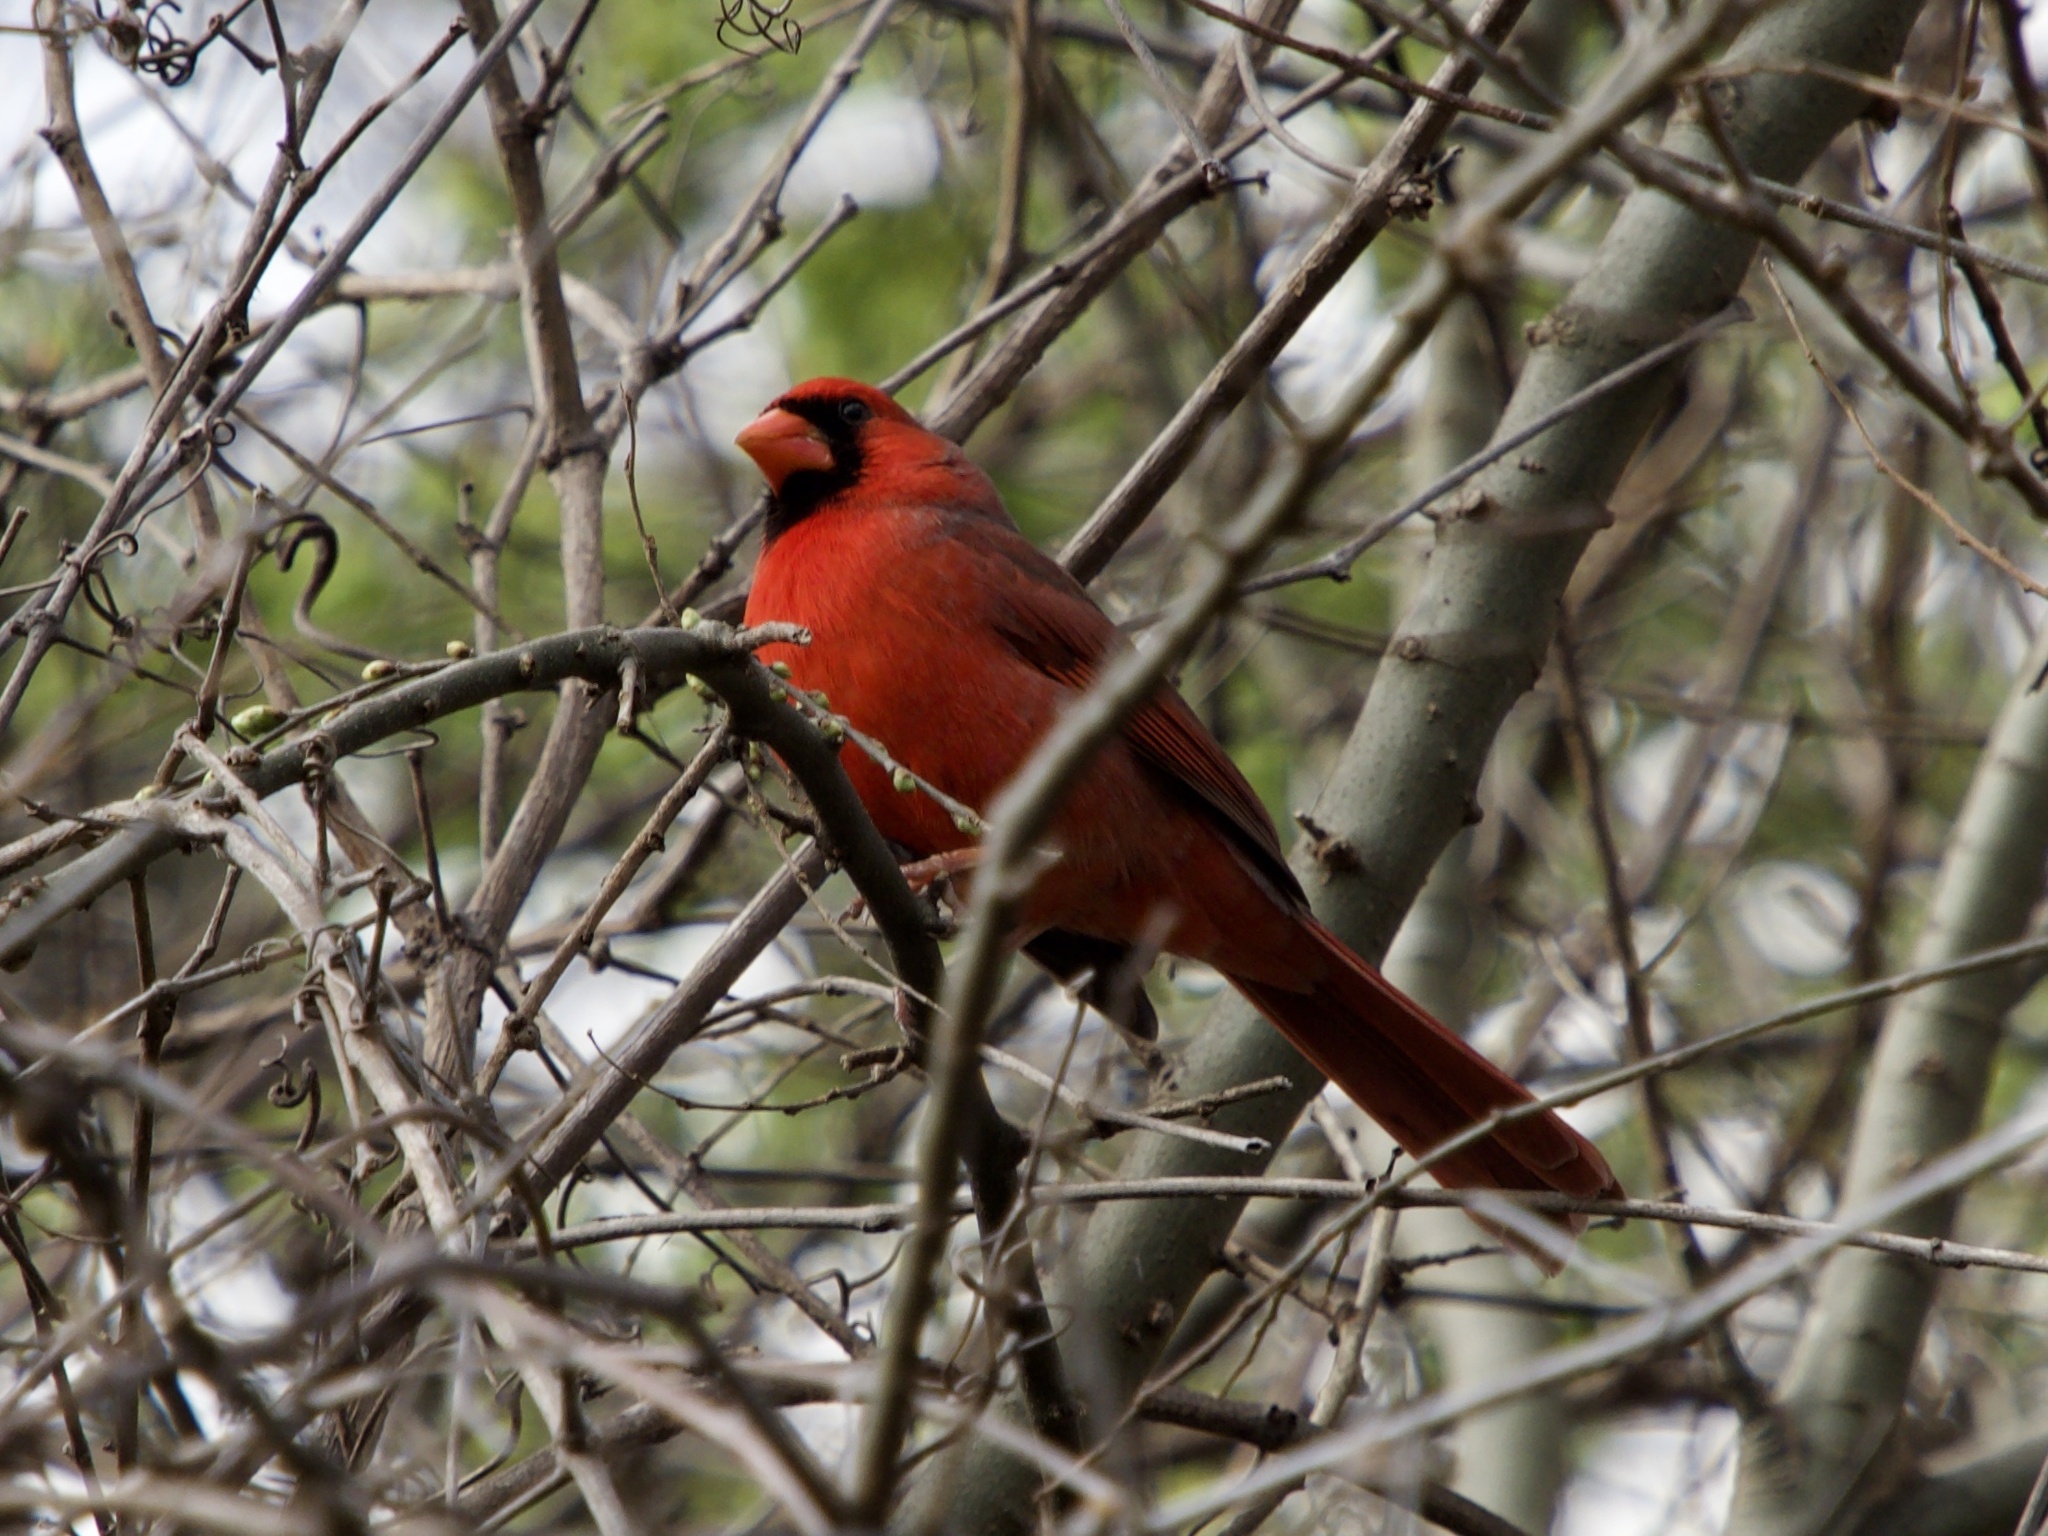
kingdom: Animalia
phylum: Chordata
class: Aves
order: Passeriformes
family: Cardinalidae
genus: Cardinalis
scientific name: Cardinalis cardinalis
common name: Northern cardinal
